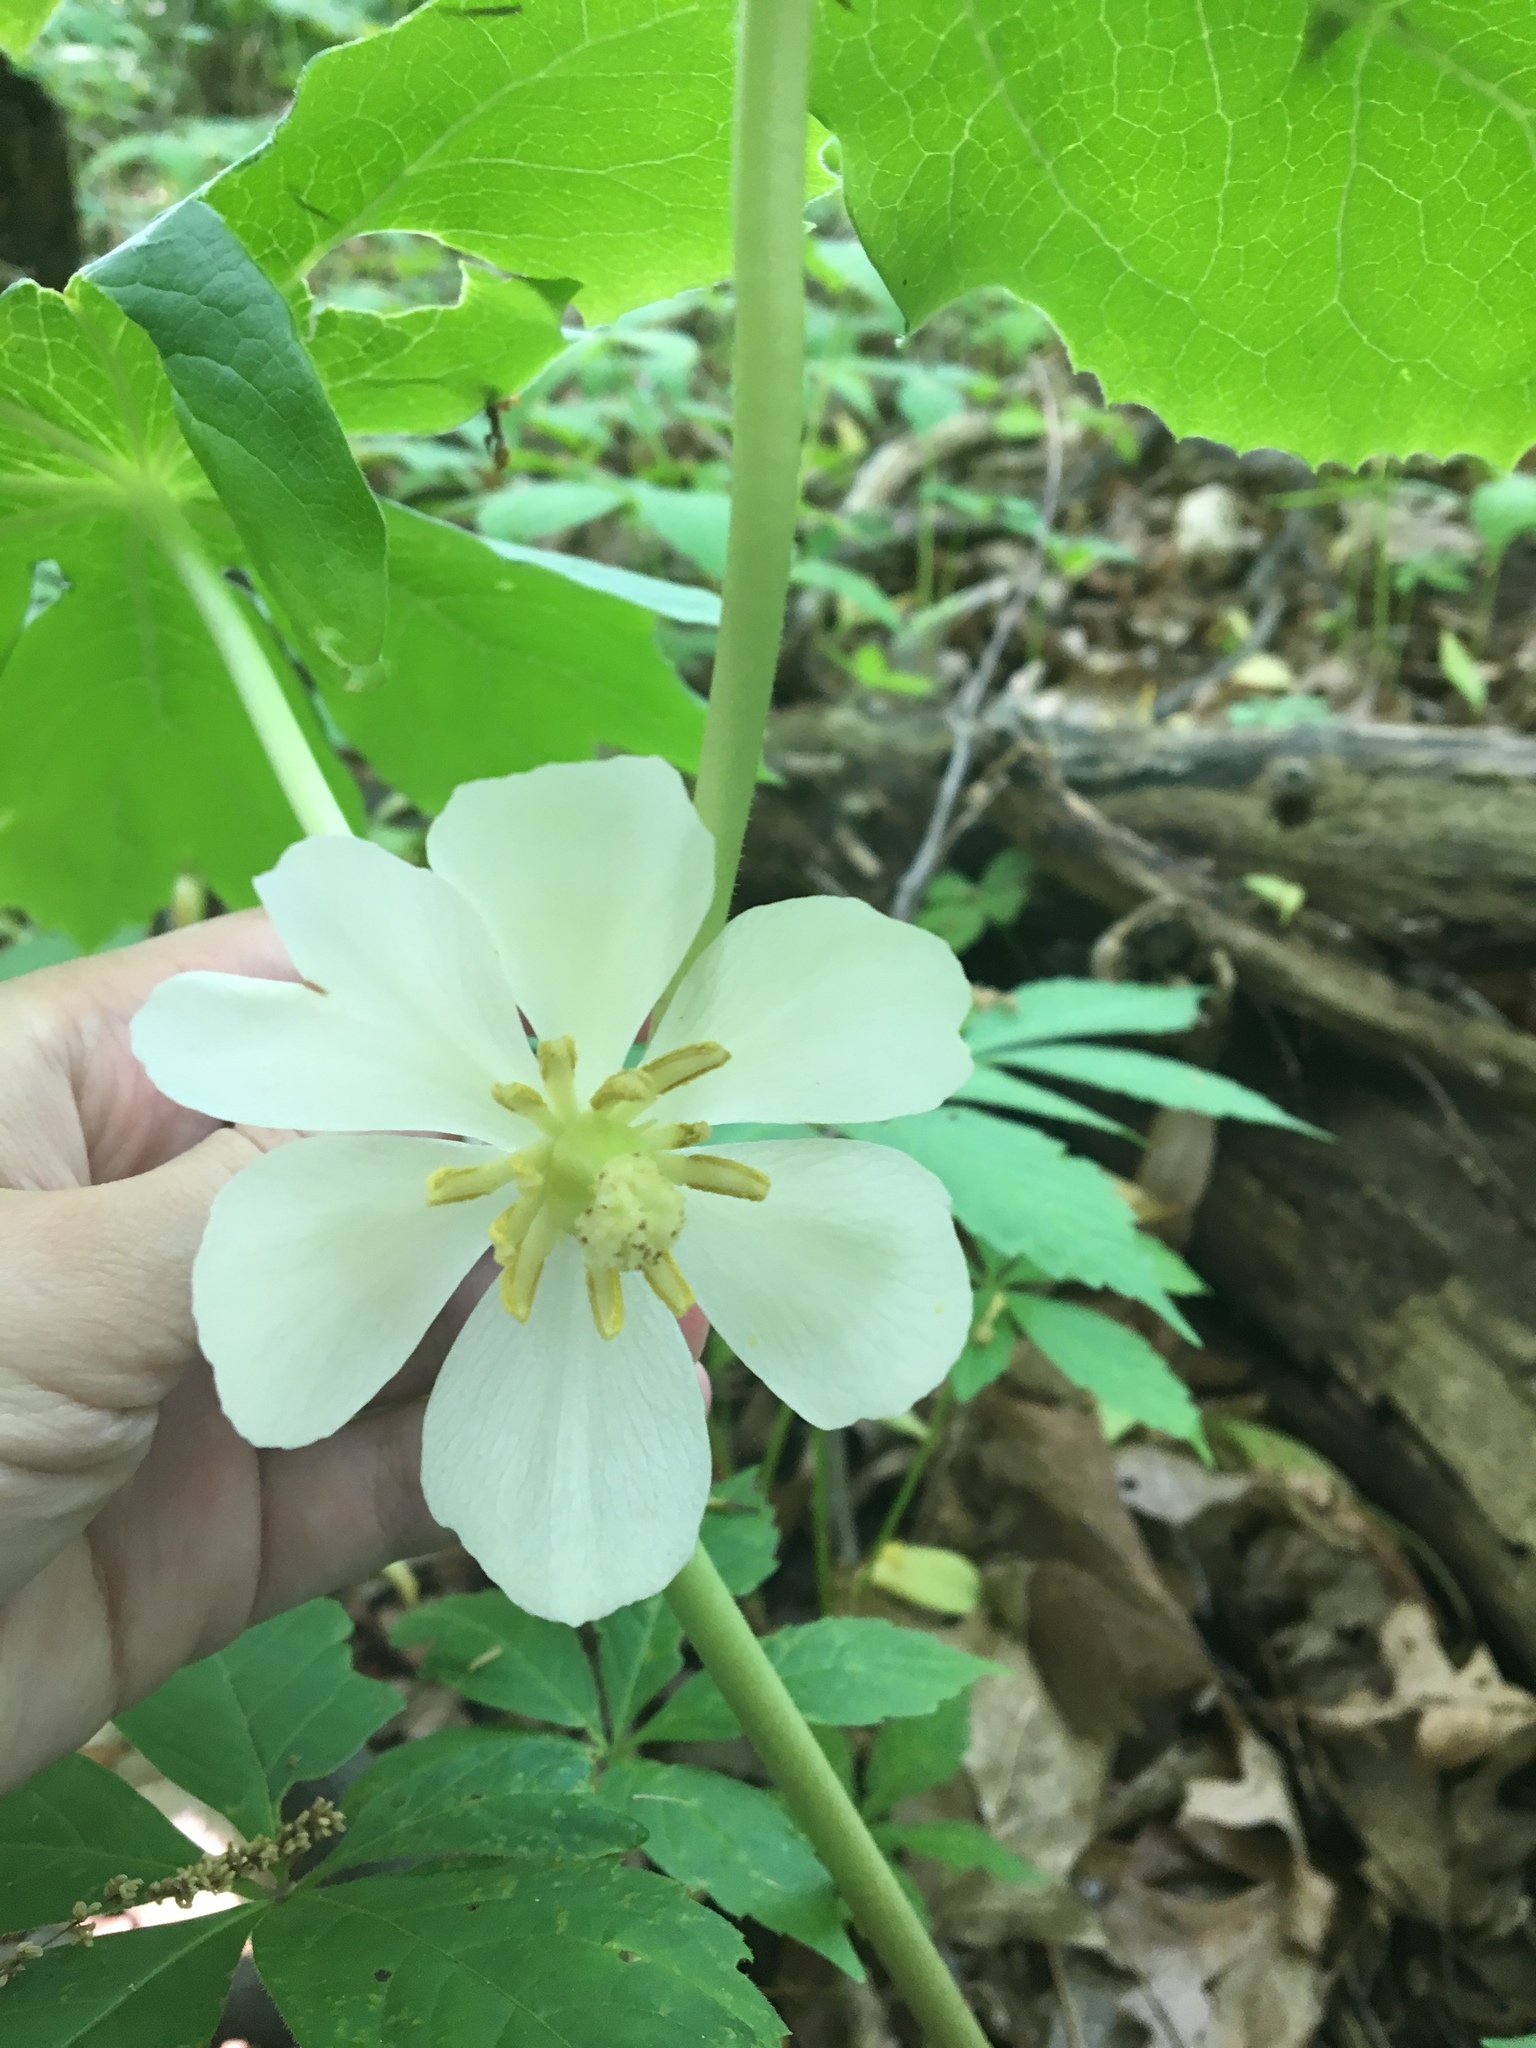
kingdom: Plantae
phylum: Tracheophyta
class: Magnoliopsida
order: Ranunculales
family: Berberidaceae
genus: Podophyllum
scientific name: Podophyllum peltatum
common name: Wild mandrake
